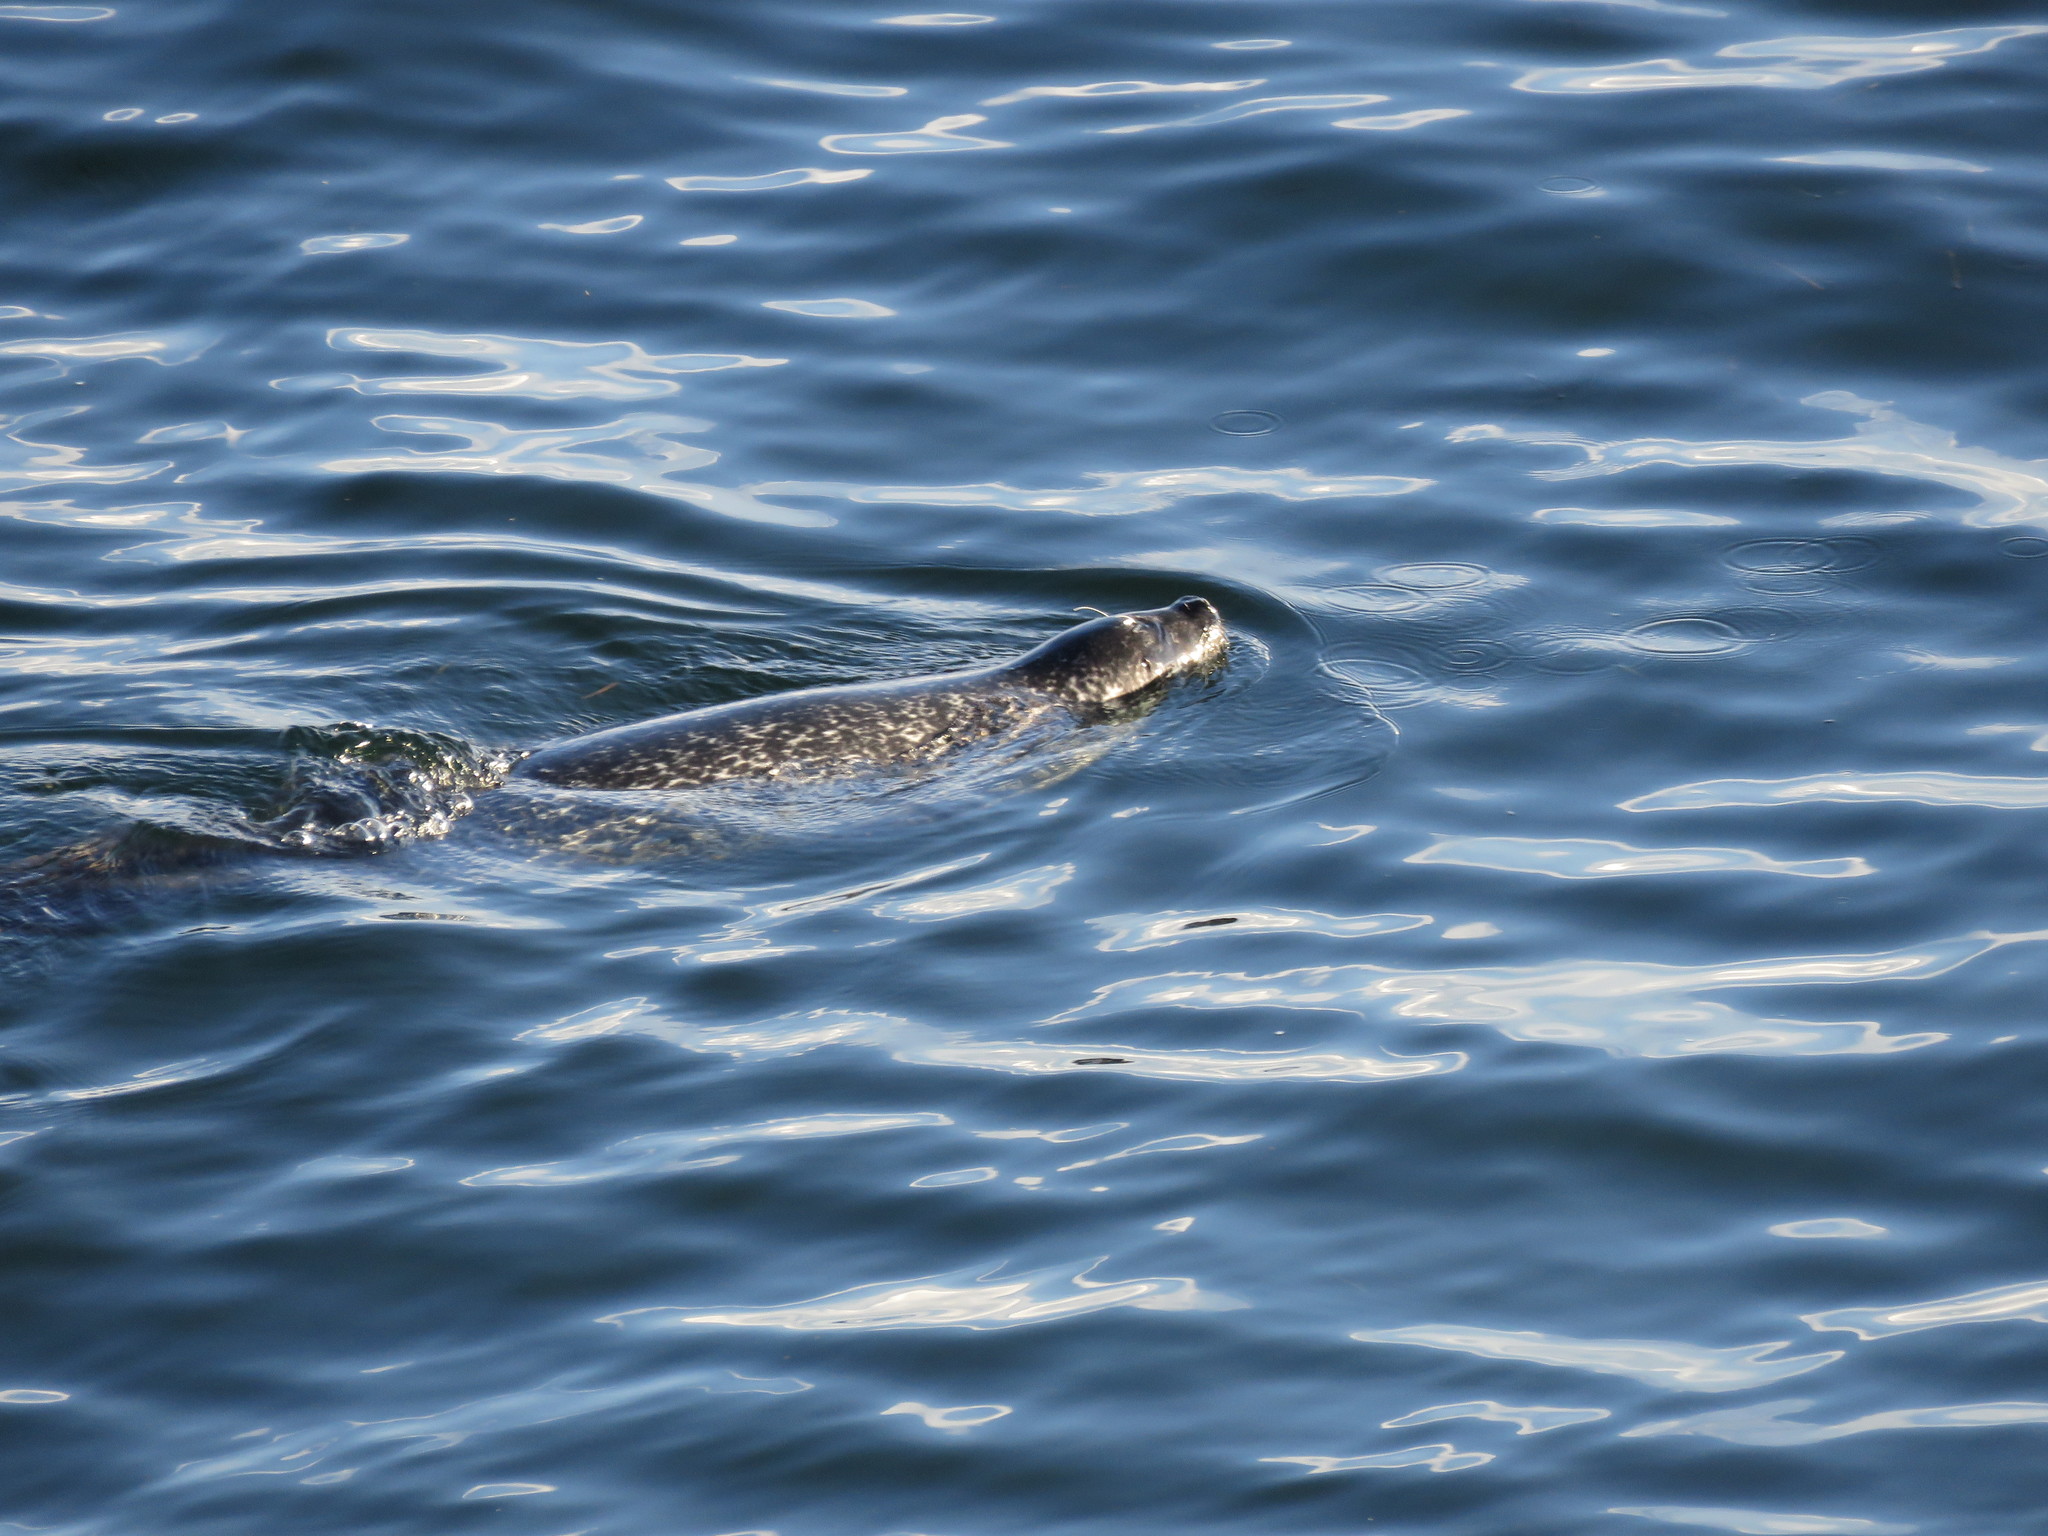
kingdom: Animalia
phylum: Chordata
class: Mammalia
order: Carnivora
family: Phocidae
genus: Phoca
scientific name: Phoca vitulina
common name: Harbor seal
